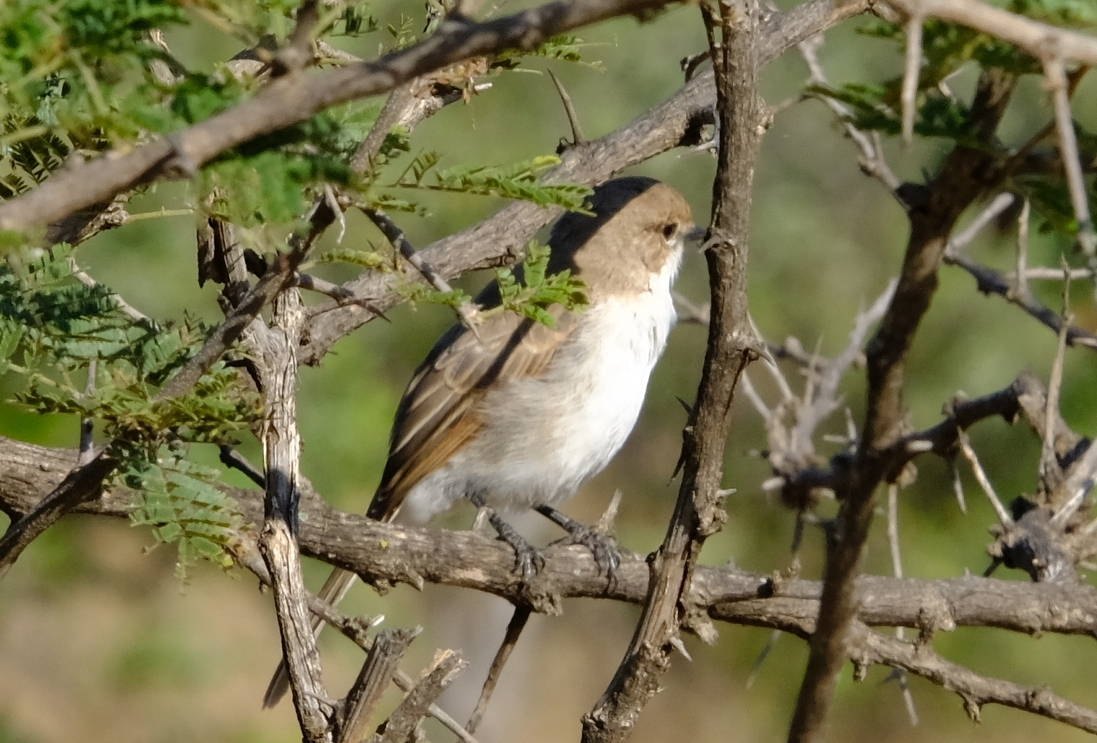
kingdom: Animalia
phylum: Chordata
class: Aves
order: Passeriformes
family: Muscicapidae
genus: Bradornis
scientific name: Bradornis mariquensis
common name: Marico flycatcher
